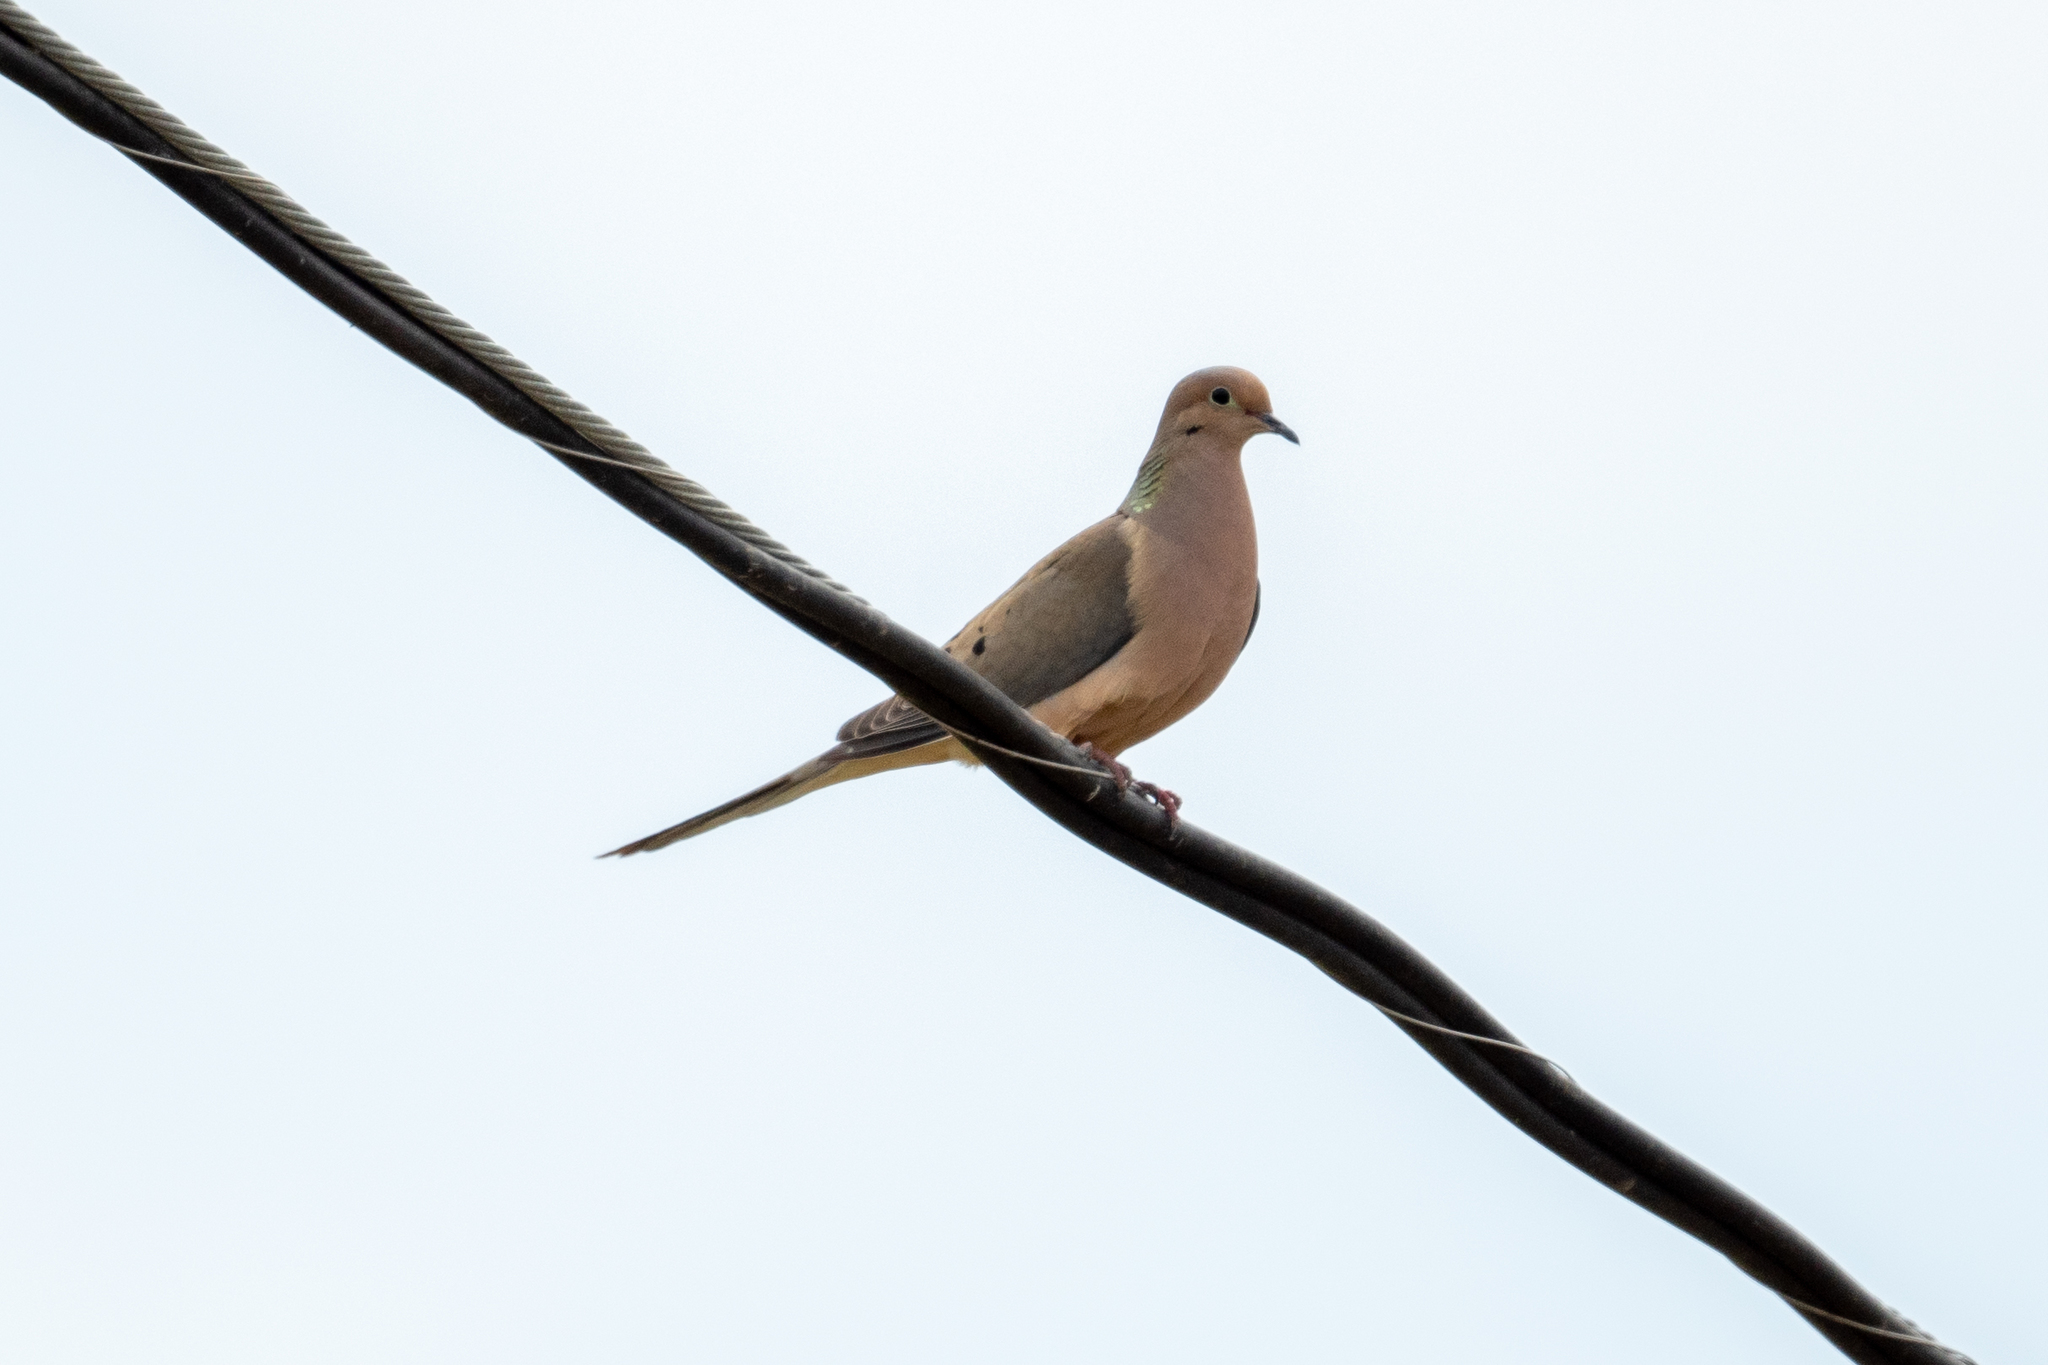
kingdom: Animalia
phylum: Chordata
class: Aves
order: Columbiformes
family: Columbidae
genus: Zenaida
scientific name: Zenaida macroura
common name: Mourning dove
